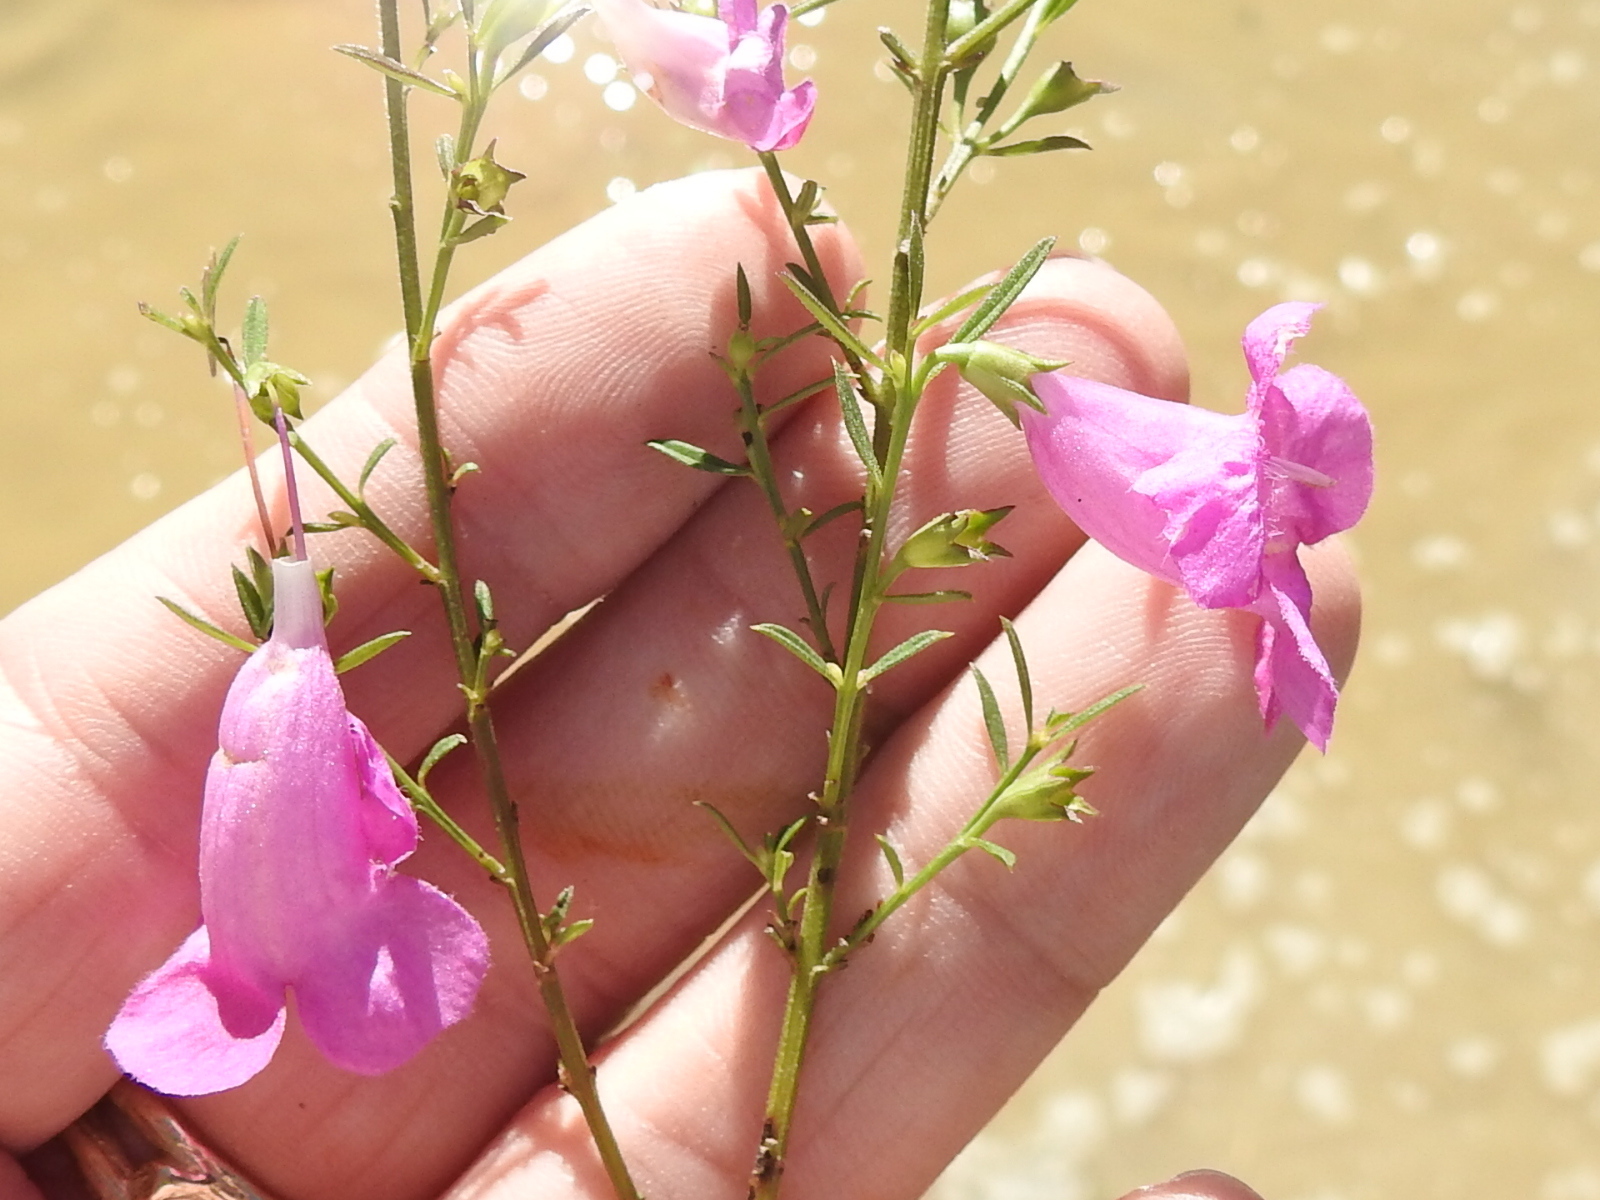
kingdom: Plantae
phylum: Tracheophyta
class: Magnoliopsida
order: Lamiales
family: Orobanchaceae
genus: Agalinis
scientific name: Agalinis heterophylla
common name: Prairie agalinis
